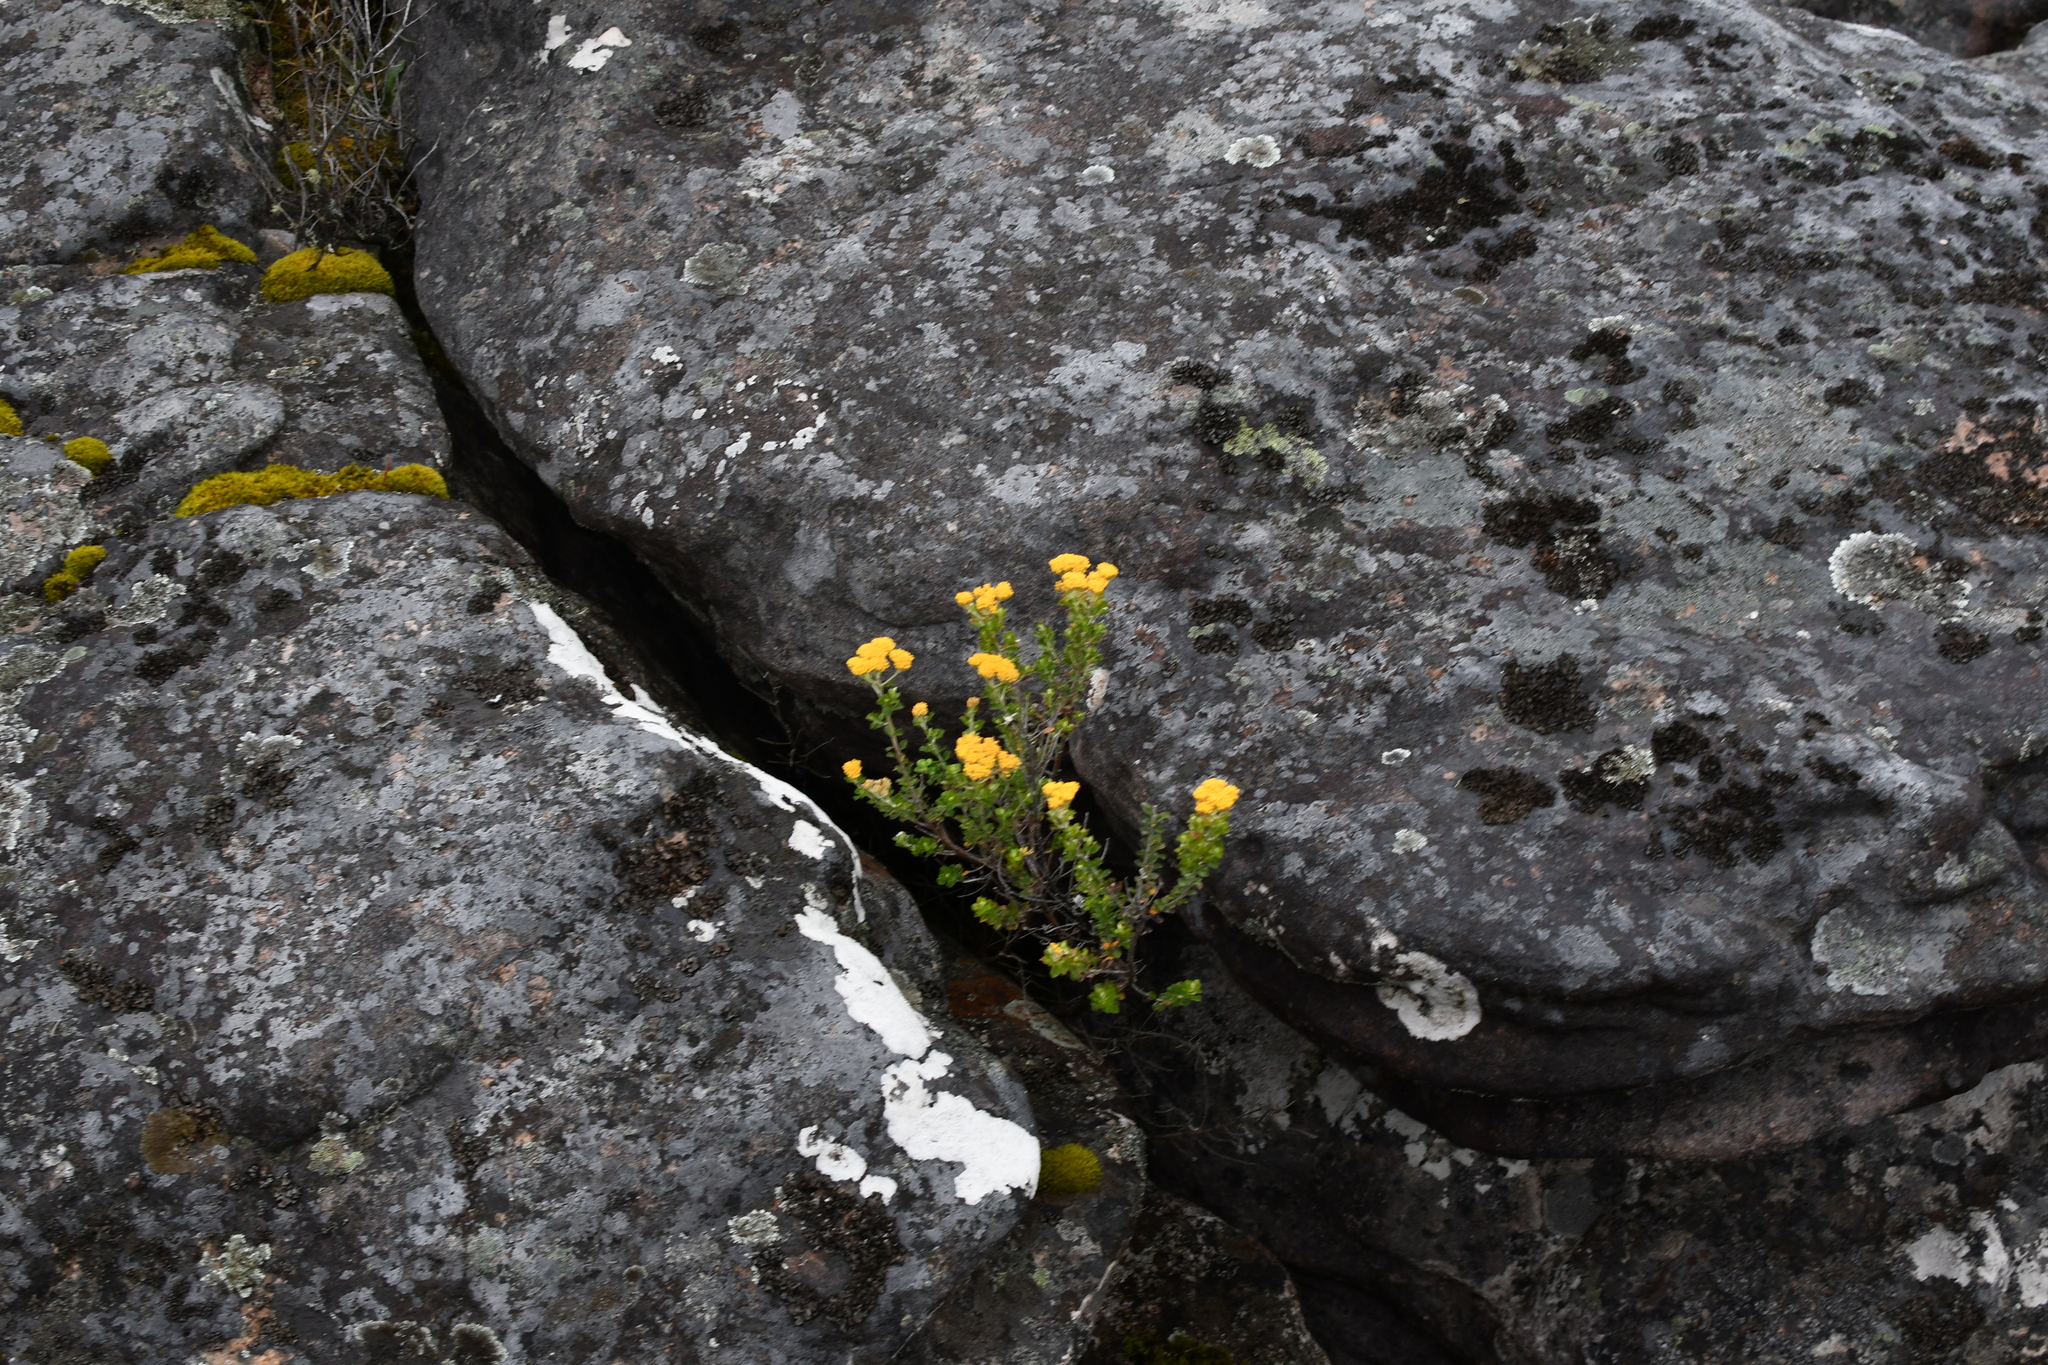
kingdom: Plantae
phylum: Tracheophyta
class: Magnoliopsida
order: Asterales
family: Asteraceae
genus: Ozothamnus
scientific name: Ozothamnus obcordatus
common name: Grey everlasting
